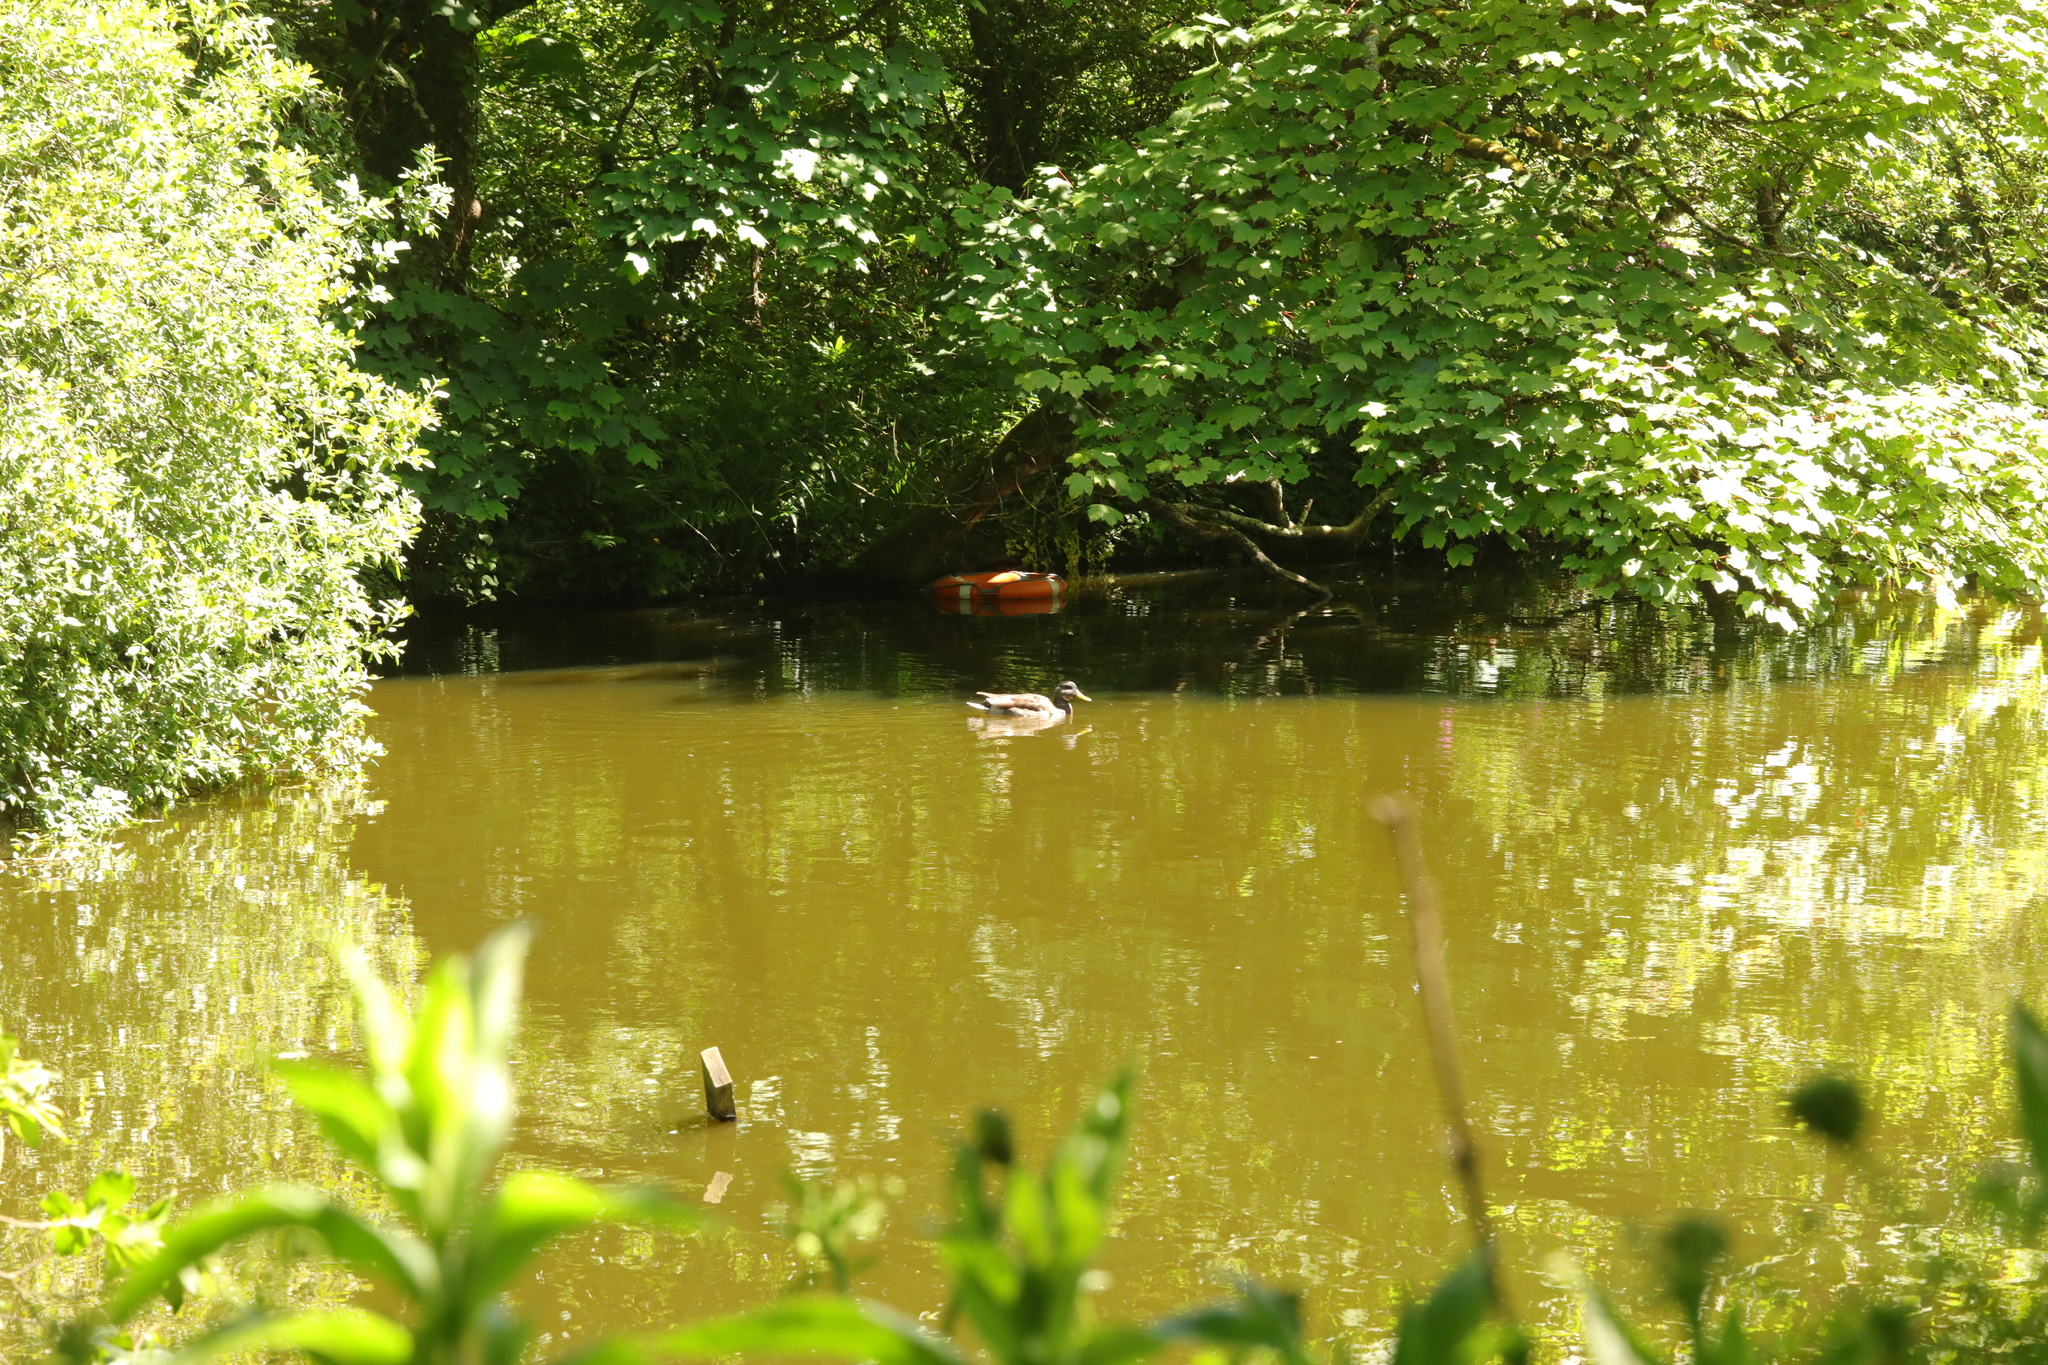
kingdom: Animalia
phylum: Chordata
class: Aves
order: Anseriformes
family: Anatidae
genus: Anas
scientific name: Anas platyrhynchos
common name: Mallard
